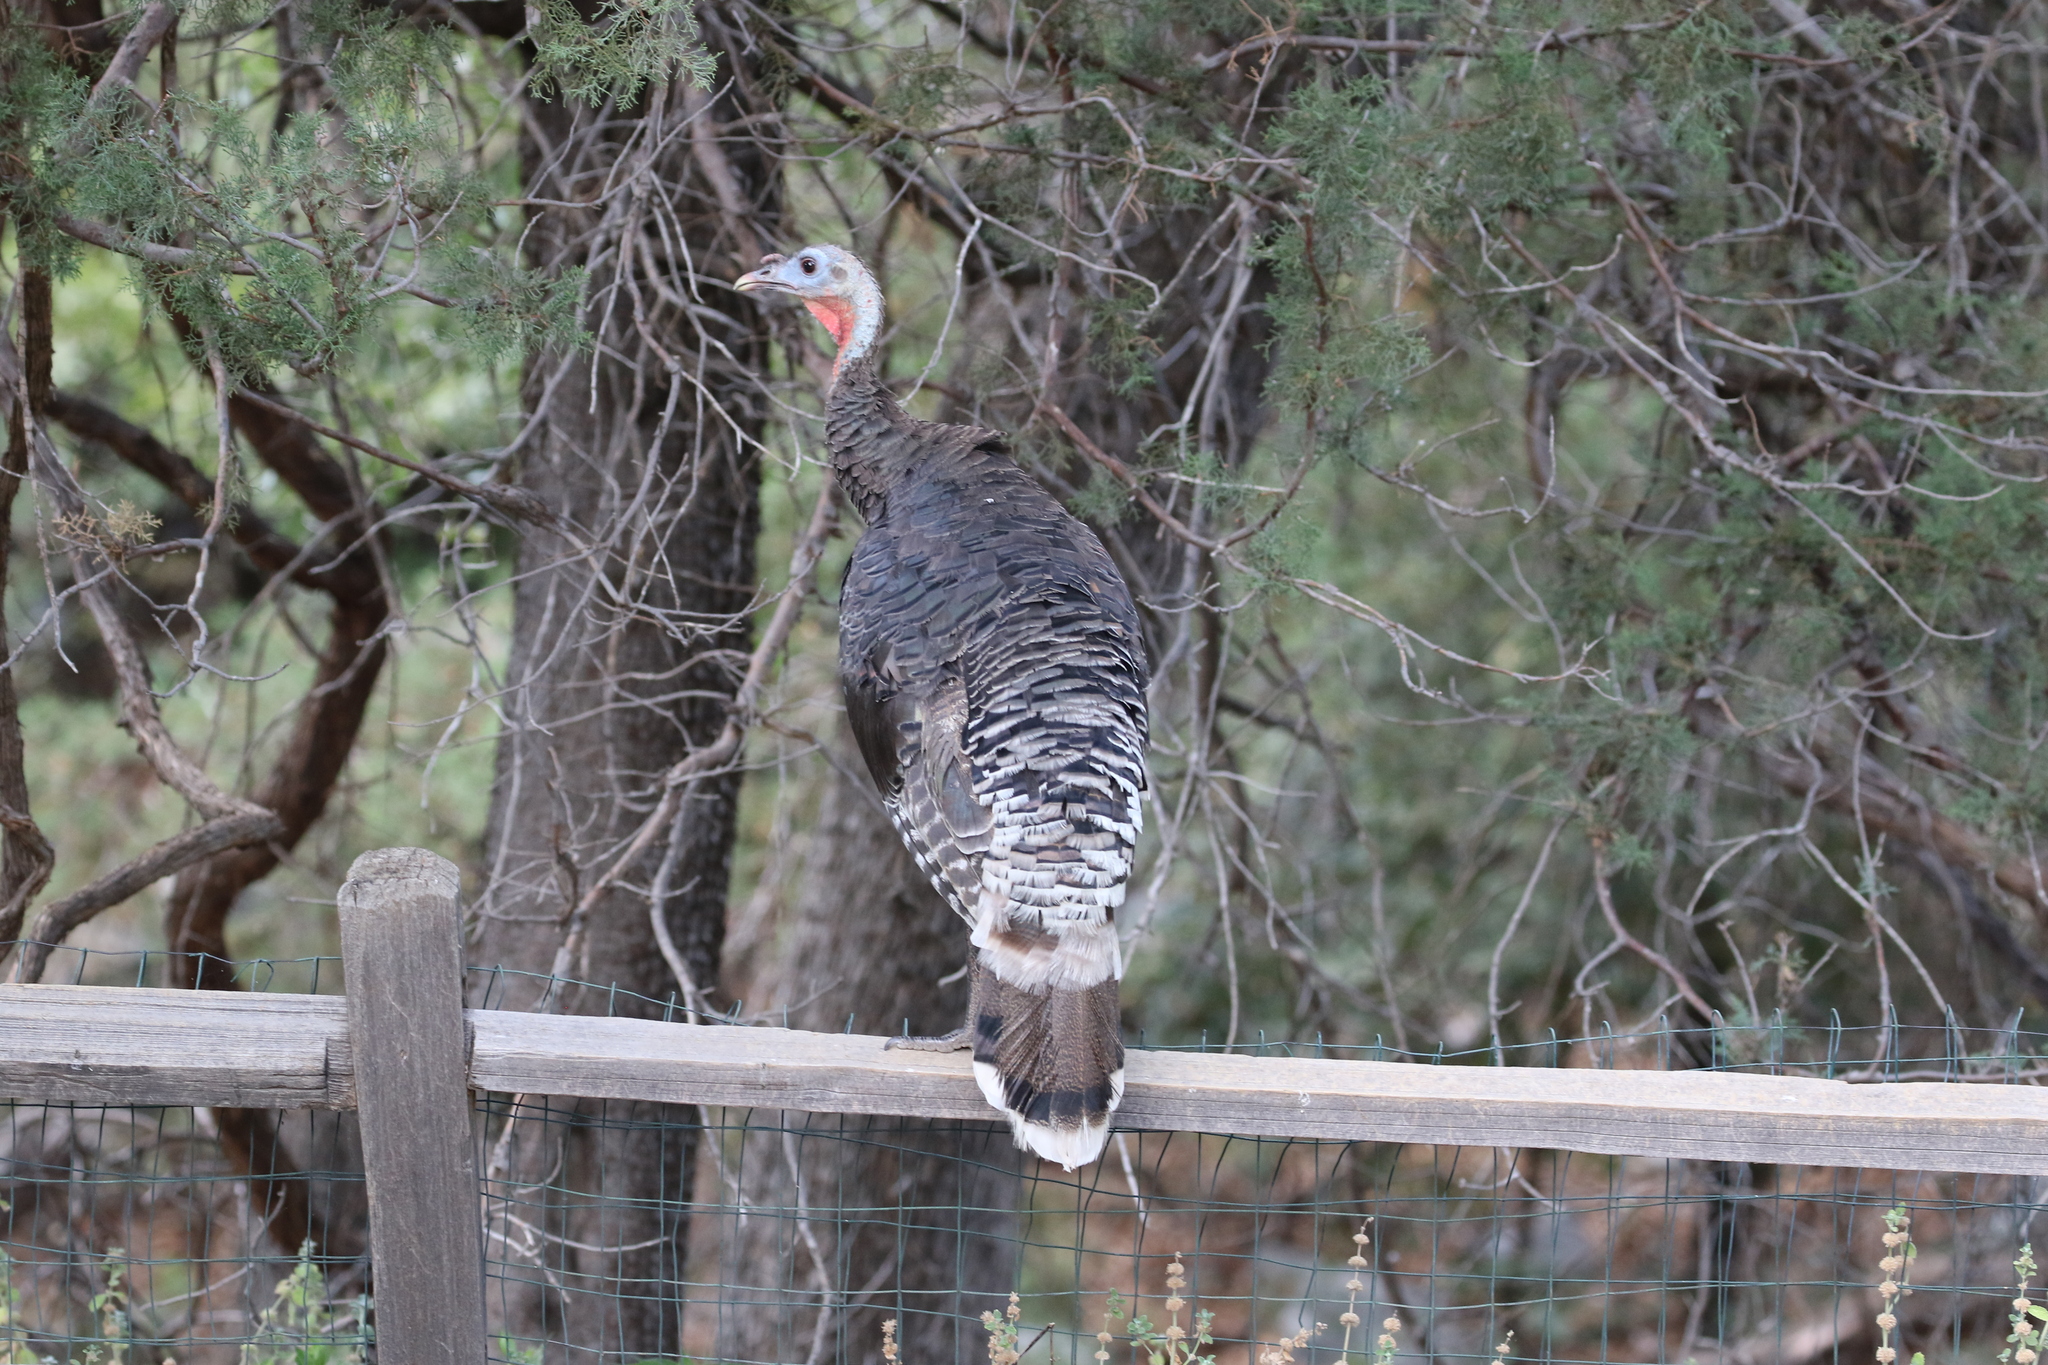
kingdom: Animalia
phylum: Chordata
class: Aves
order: Galliformes
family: Phasianidae
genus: Meleagris
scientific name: Meleagris gallopavo
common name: Wild turkey
